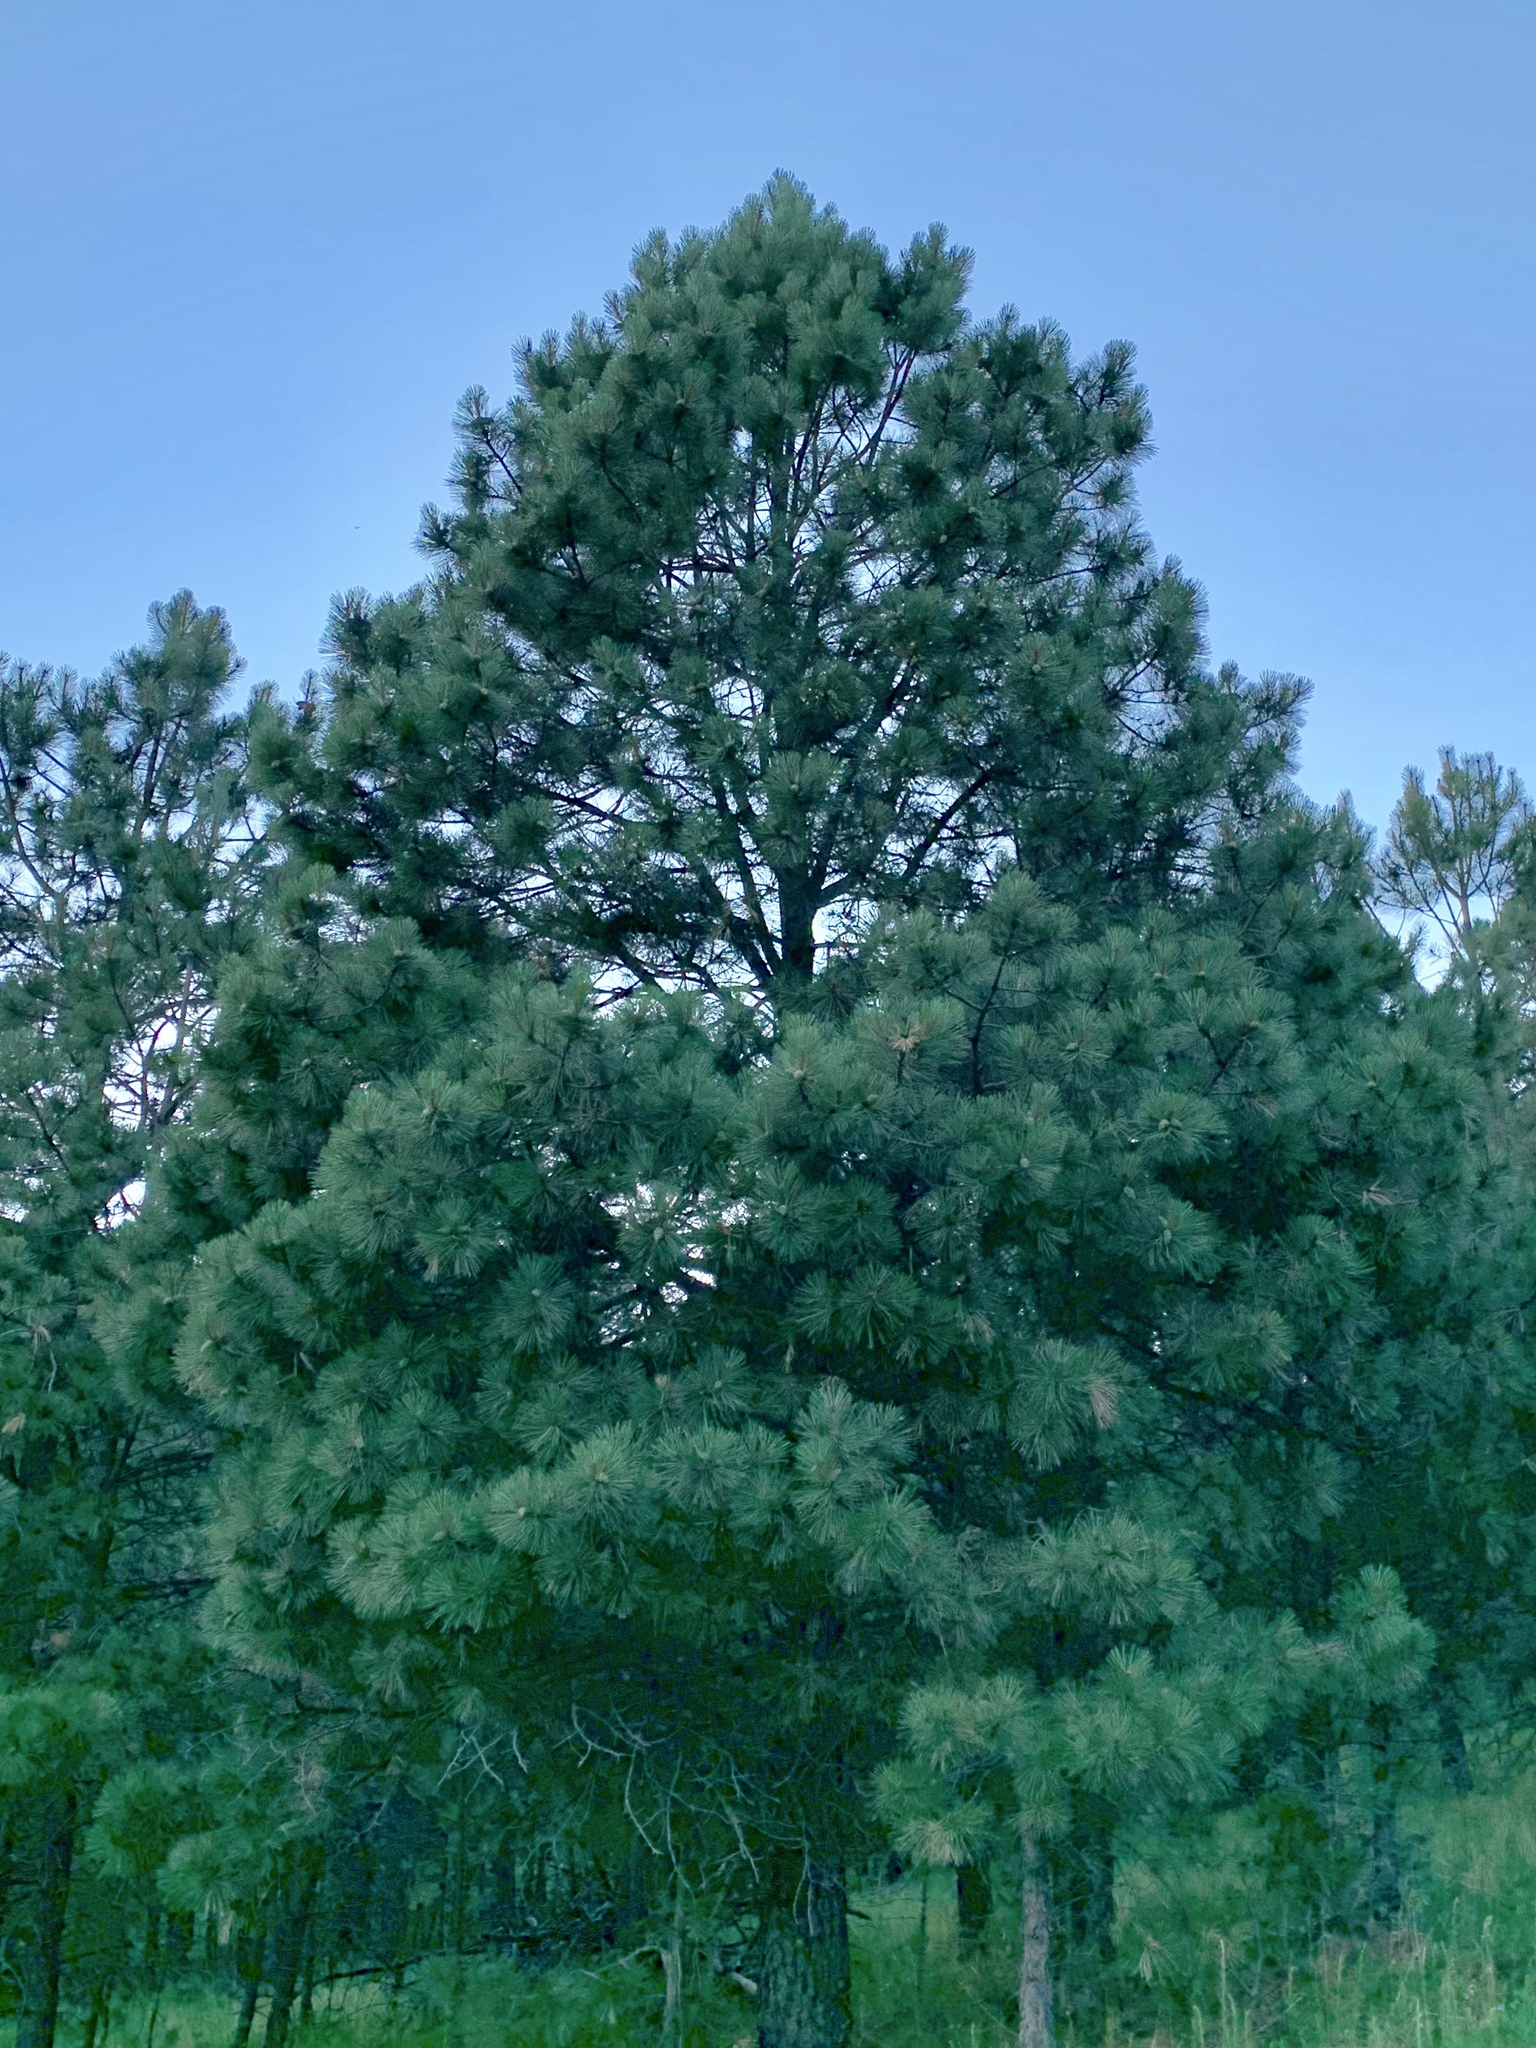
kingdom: Plantae
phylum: Tracheophyta
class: Pinopsida
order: Pinales
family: Pinaceae
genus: Pinus
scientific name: Pinus ponderosa
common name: Western yellow-pine
